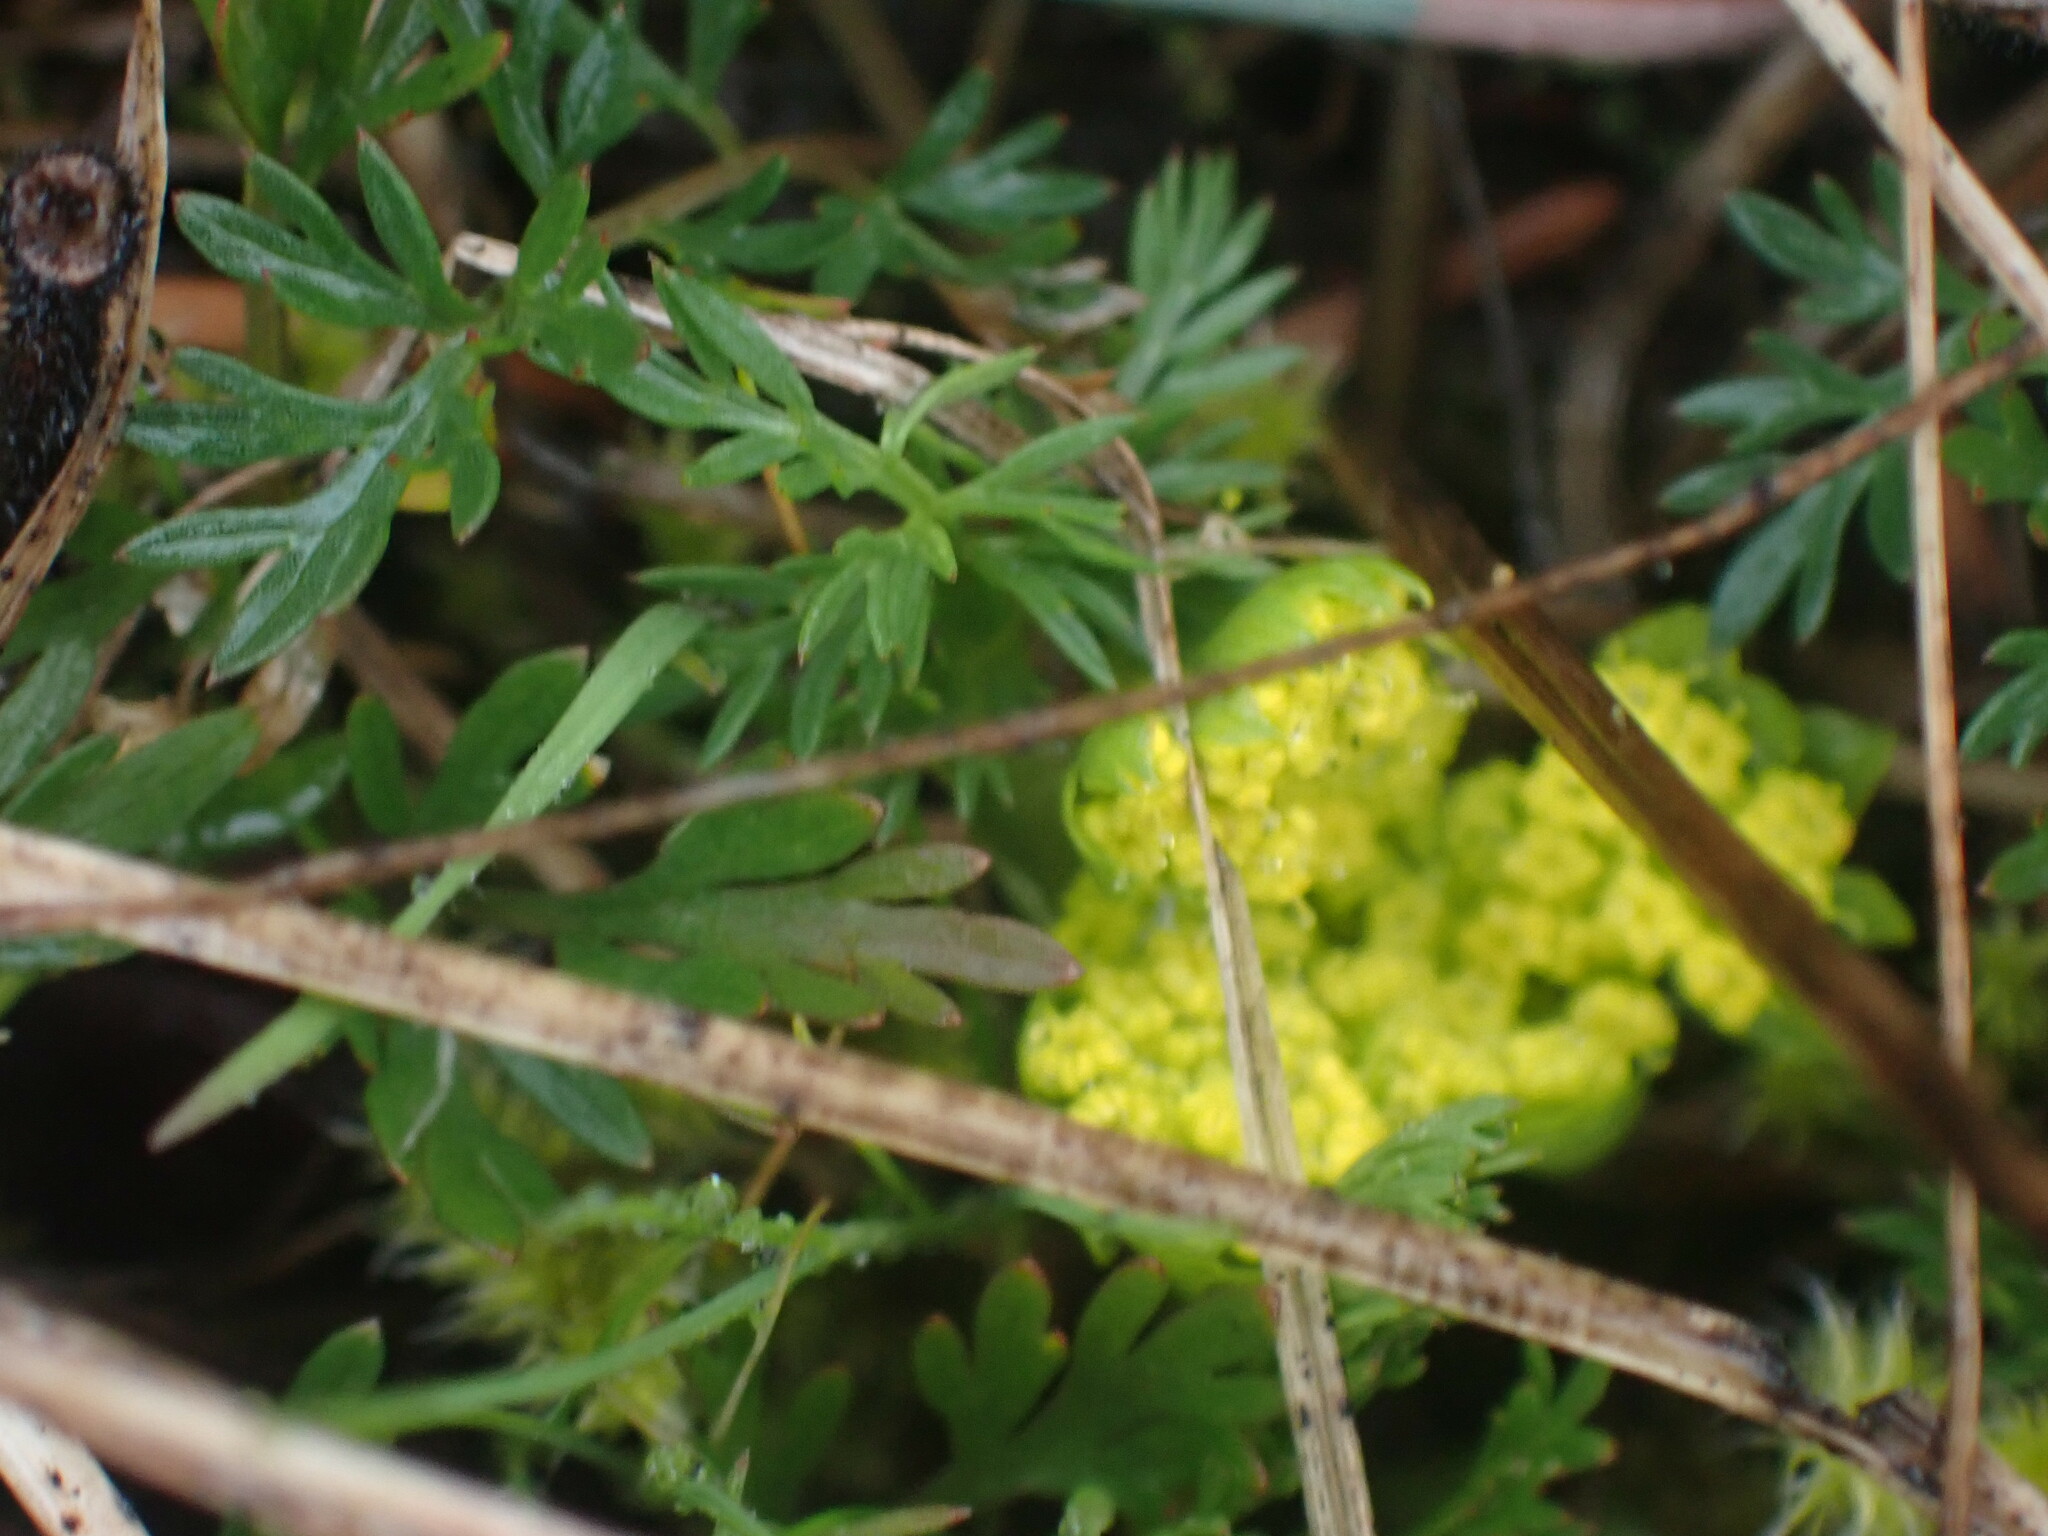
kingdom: Plantae
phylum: Tracheophyta
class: Magnoliopsida
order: Apiales
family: Apiaceae
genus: Lomatium
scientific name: Lomatium utriculatum
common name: Fine-leaf desert-parsley
